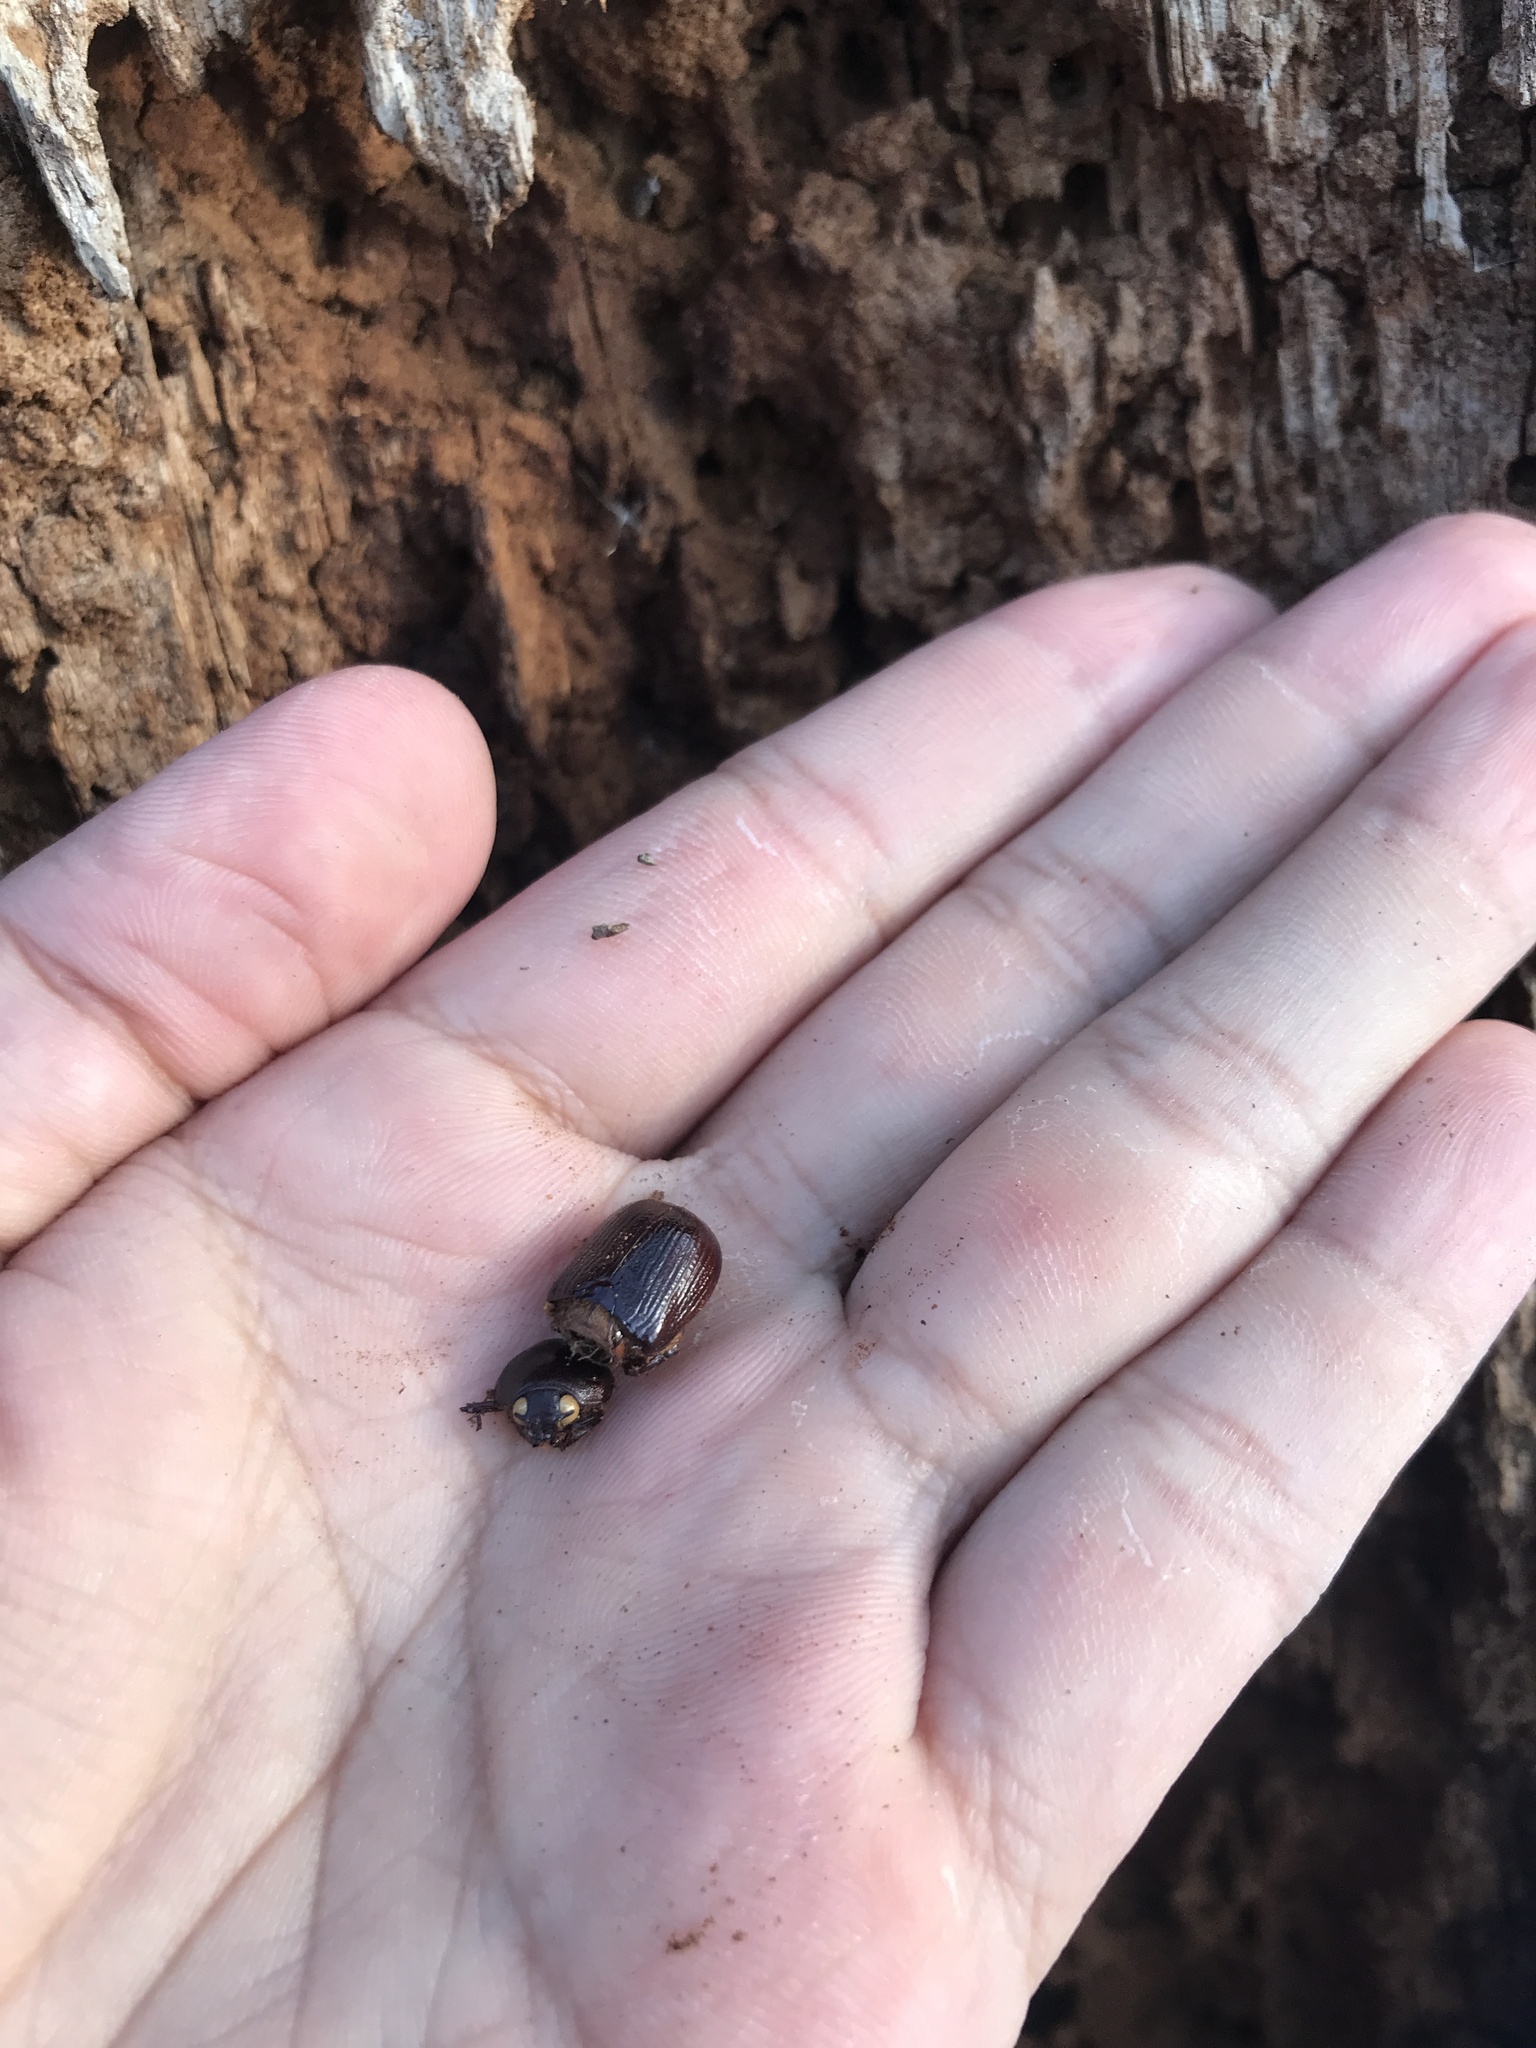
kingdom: Animalia
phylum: Arthropoda
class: Insecta
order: Coleoptera
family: Scarabaeidae
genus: Parastasia
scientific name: Parastasia brevipes
